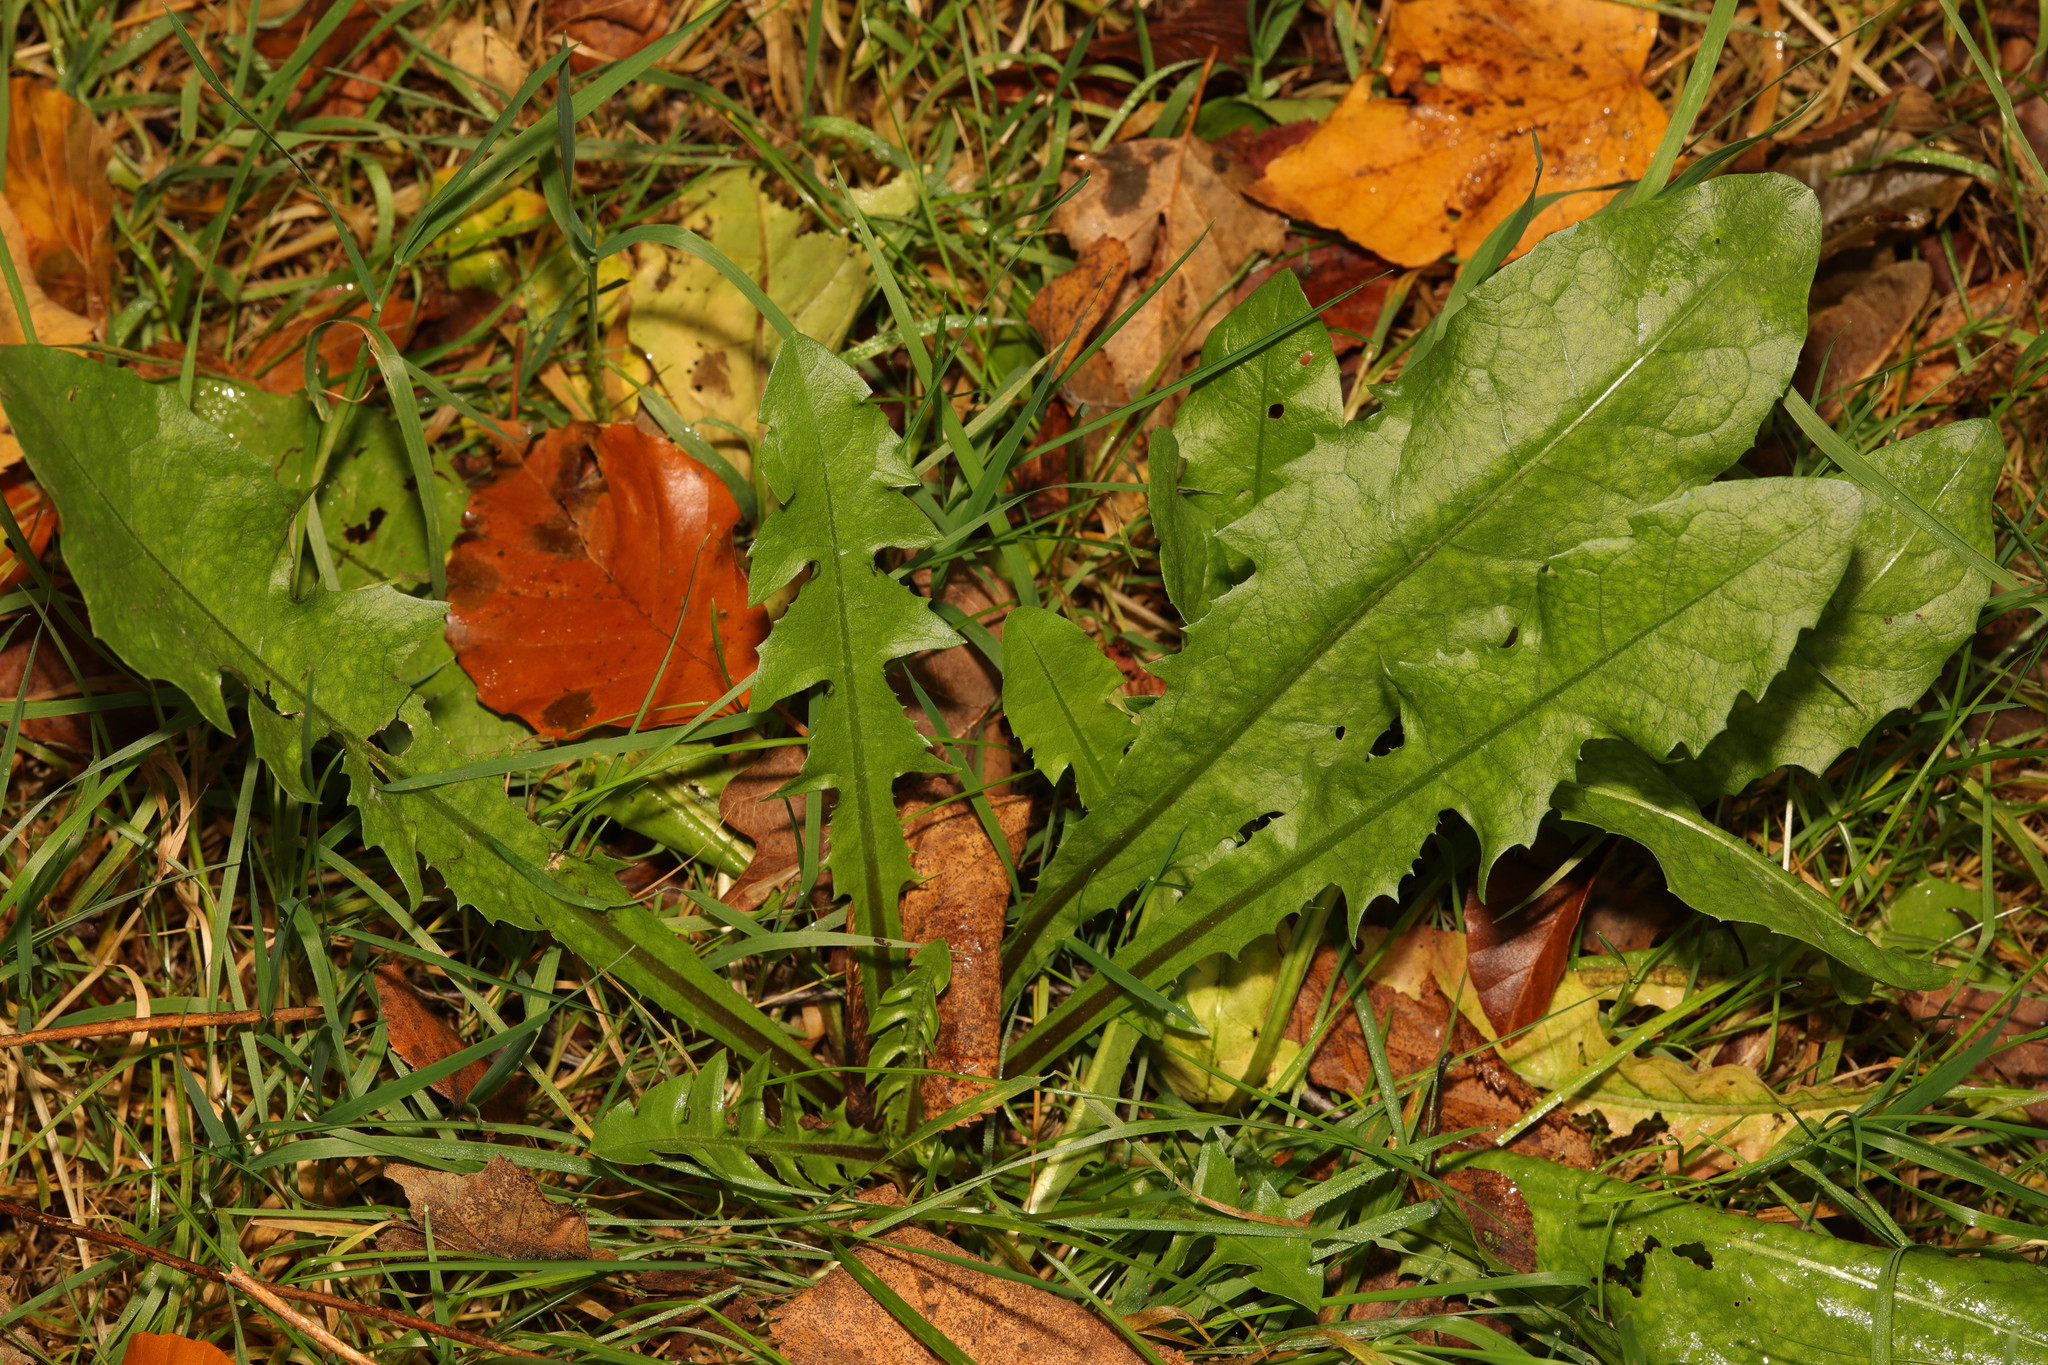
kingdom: Plantae
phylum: Tracheophyta
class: Magnoliopsida
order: Asterales
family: Asteraceae
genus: Taraxacum
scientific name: Taraxacum officinale
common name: Common dandelion
